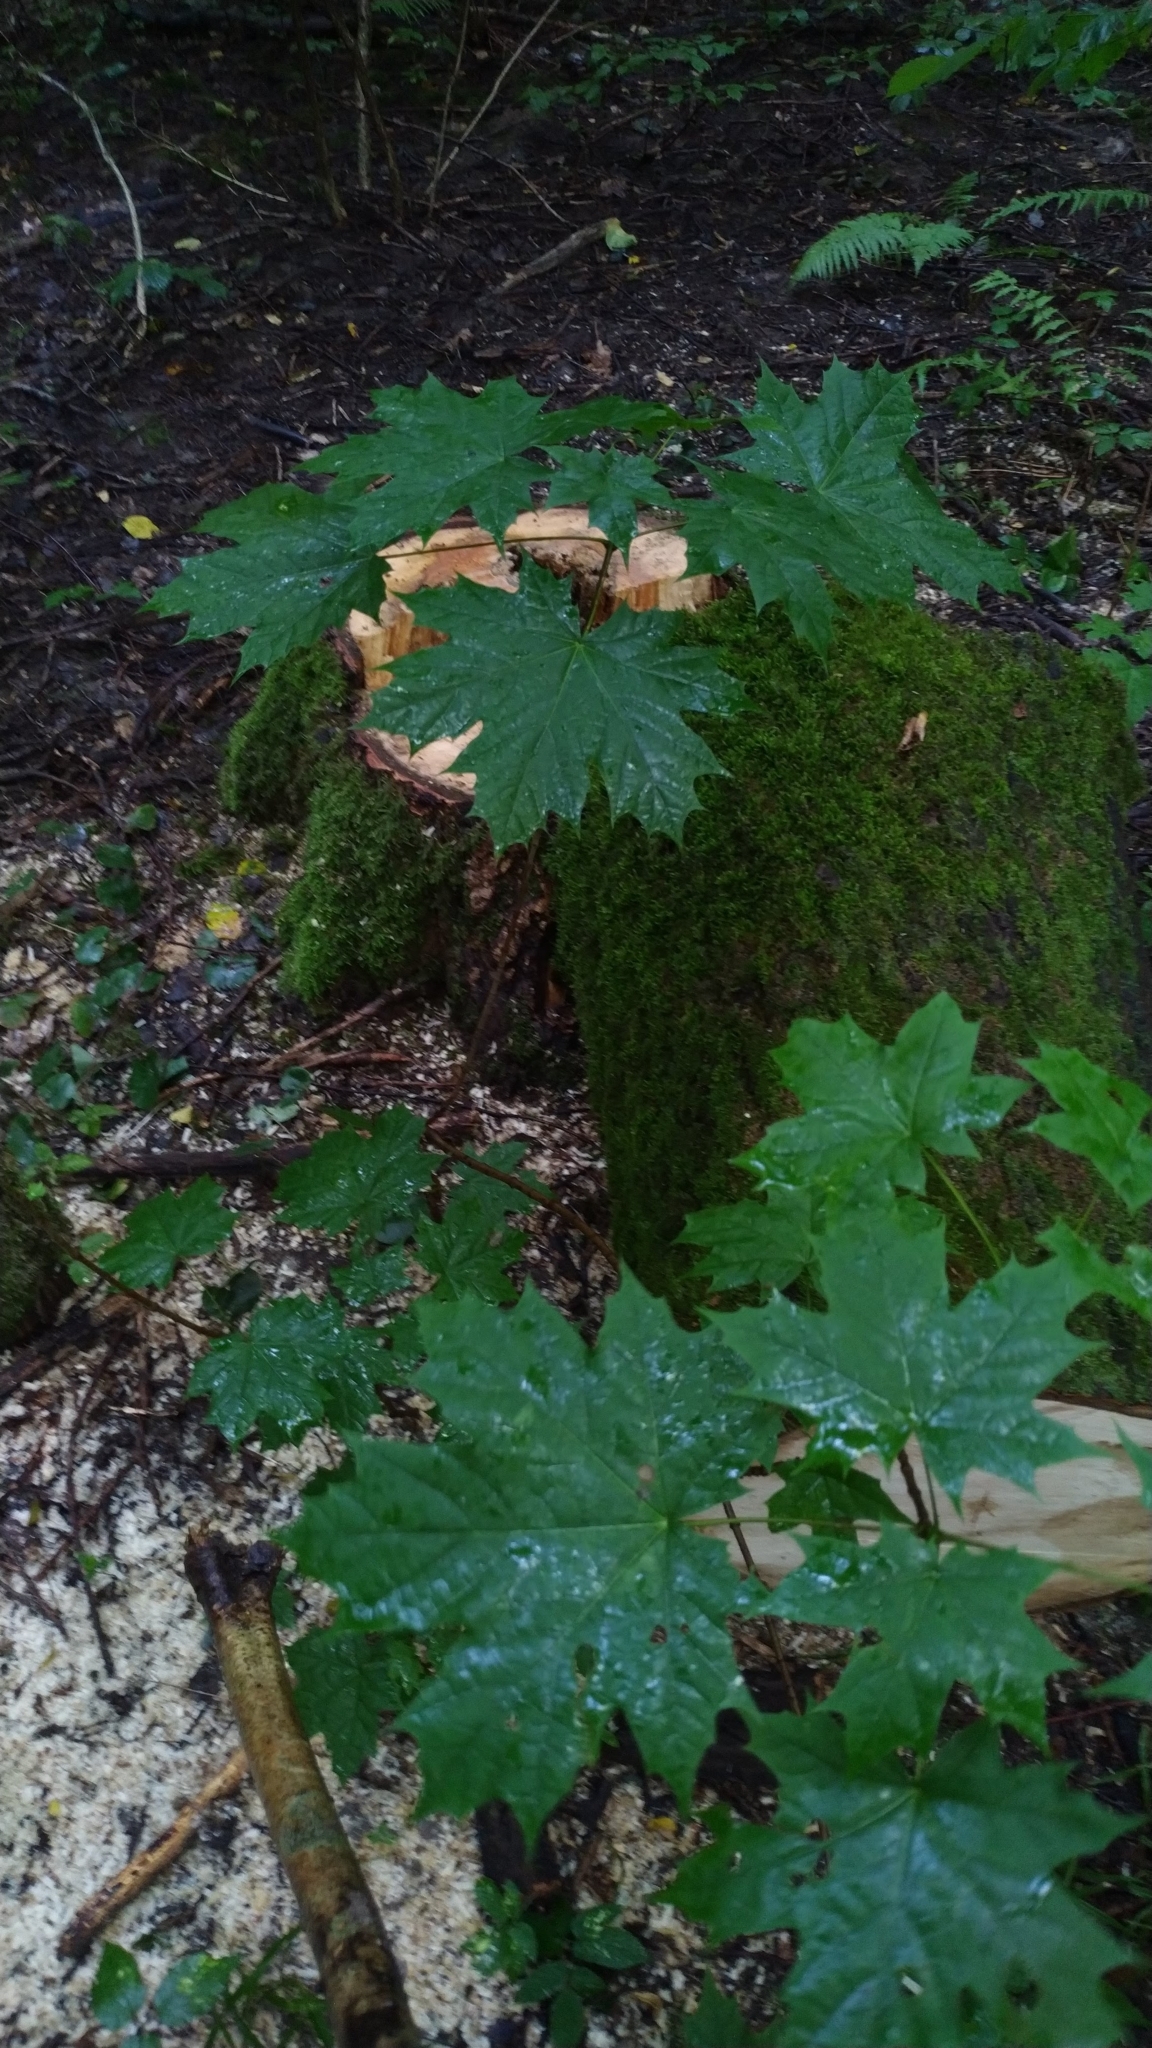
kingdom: Plantae
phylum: Tracheophyta
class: Magnoliopsida
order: Sapindales
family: Sapindaceae
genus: Acer
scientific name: Acer platanoides
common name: Norway maple
